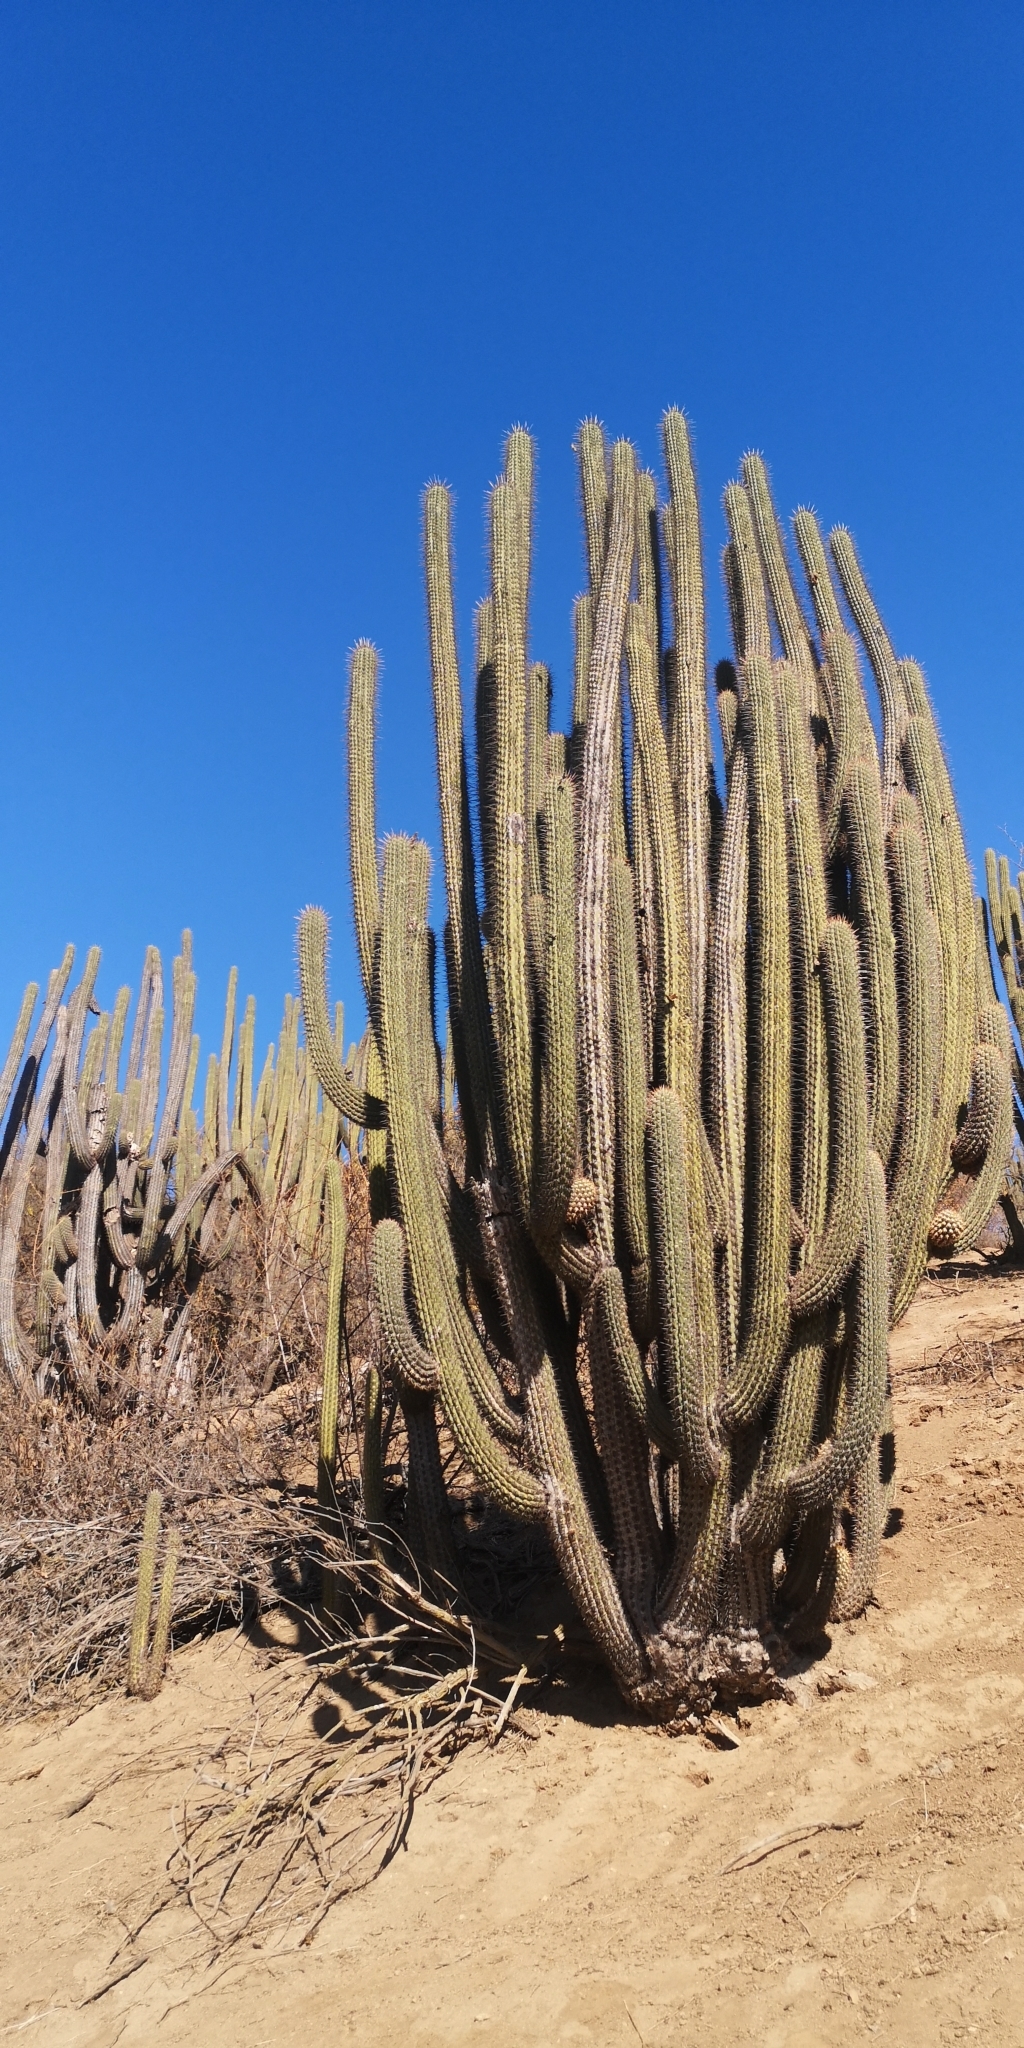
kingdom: Plantae
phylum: Tracheophyta
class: Magnoliopsida
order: Caryophyllales
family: Cactaceae
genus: Leucostele
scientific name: Leucostele chiloensis
